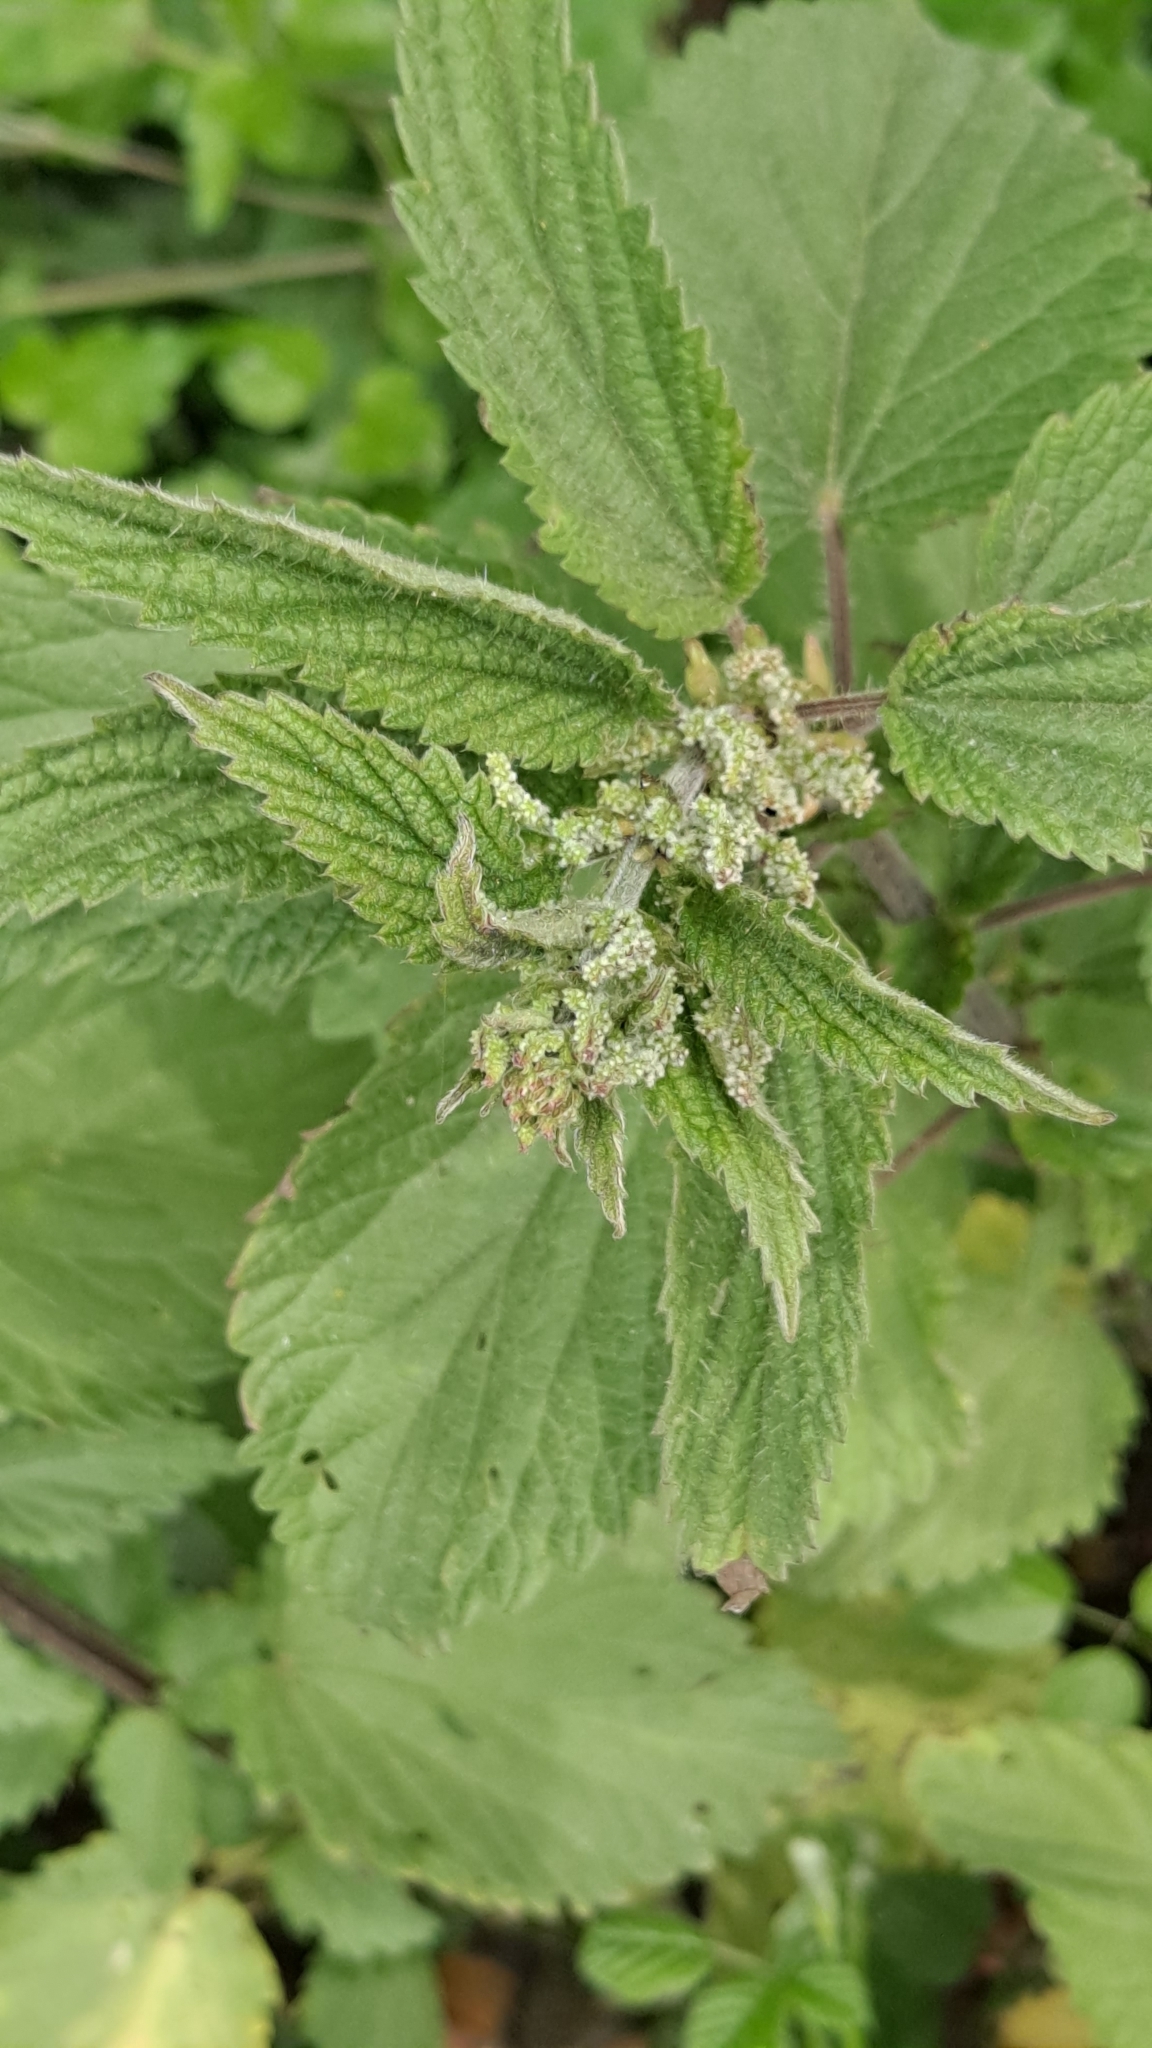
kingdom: Plantae
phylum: Tracheophyta
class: Magnoliopsida
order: Rosales
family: Urticaceae
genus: Urtica
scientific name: Urtica dioica
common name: Common nettle
